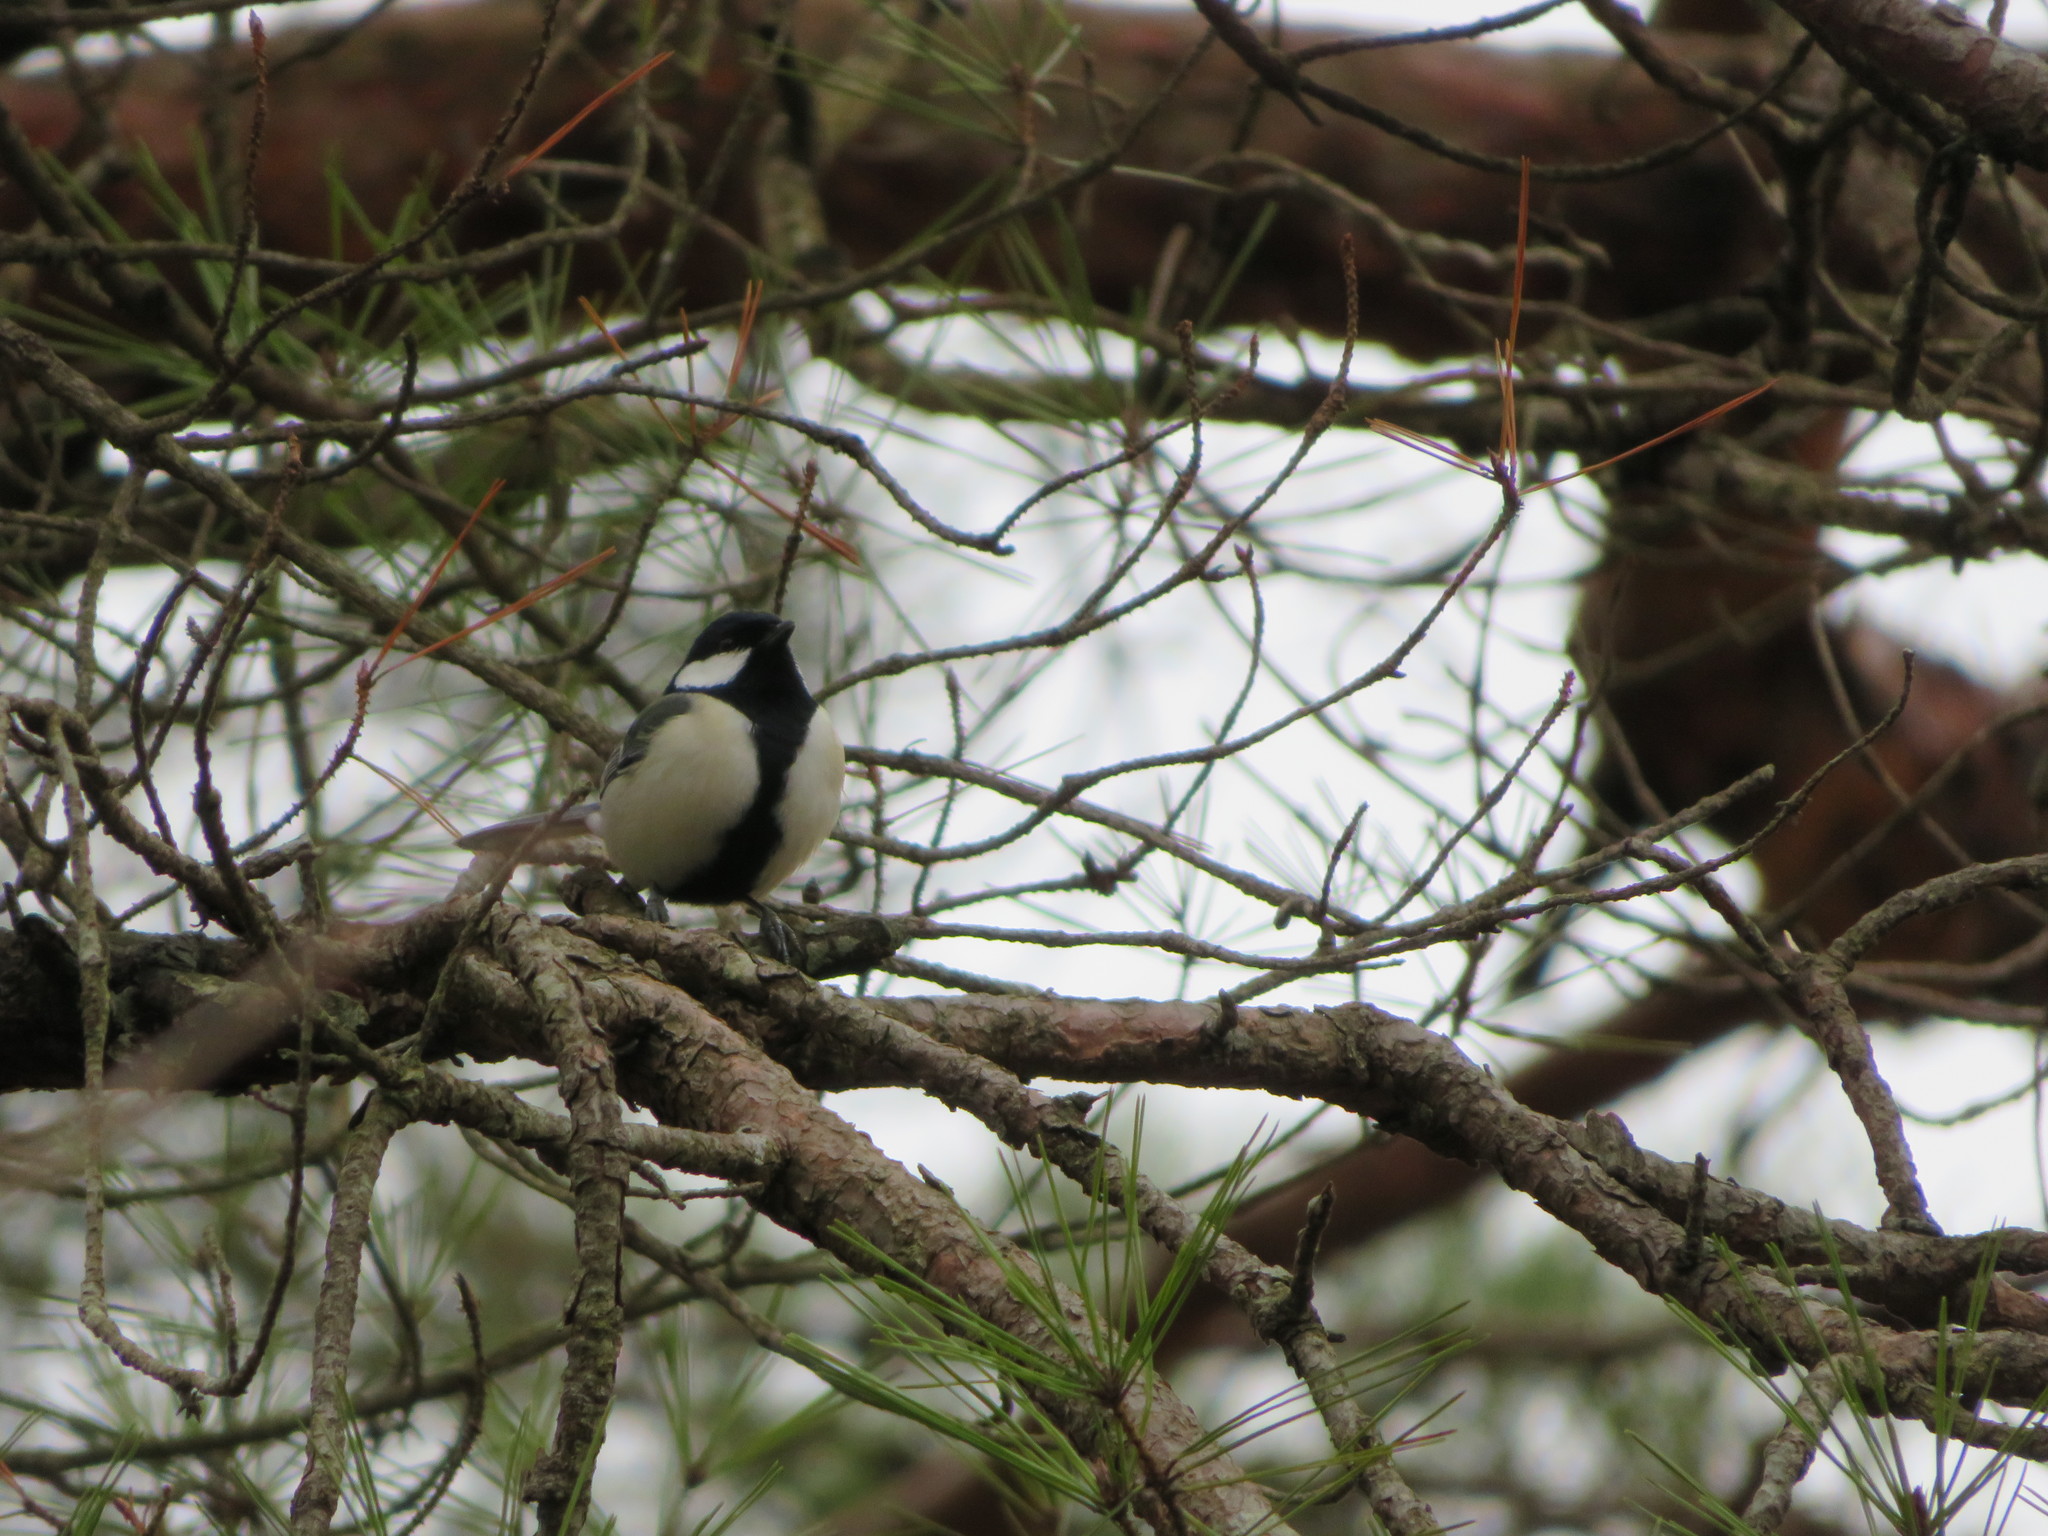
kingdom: Animalia
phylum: Chordata
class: Aves
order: Passeriformes
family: Paridae
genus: Parus
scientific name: Parus minor
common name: Japanese tit
